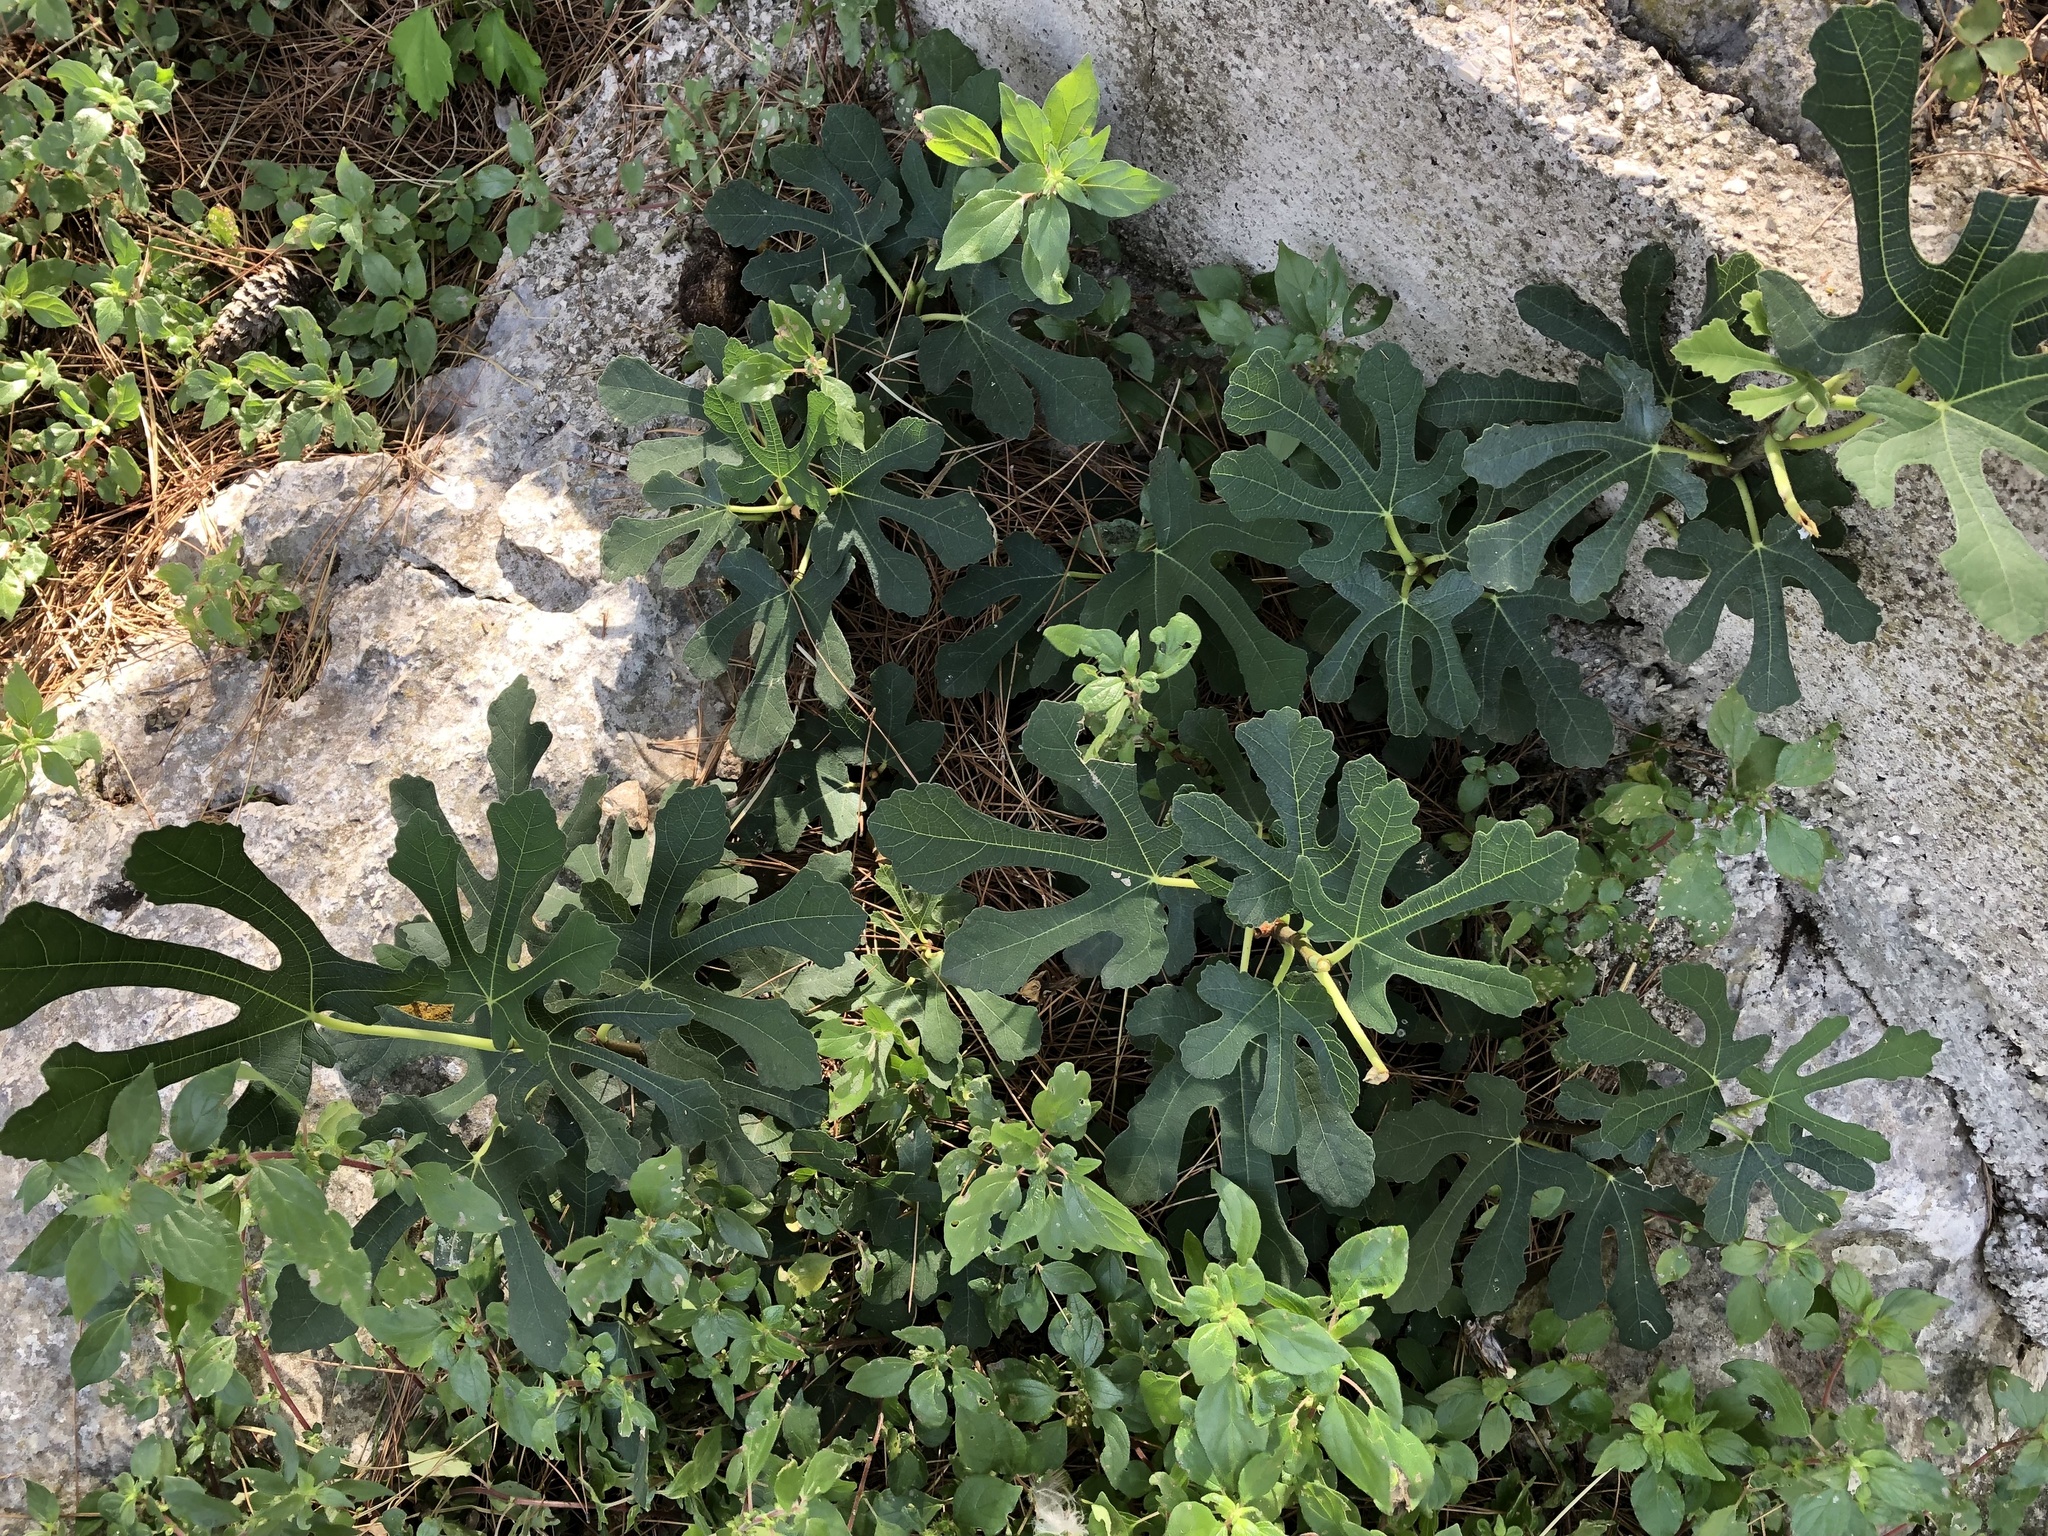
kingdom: Plantae
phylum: Tracheophyta
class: Magnoliopsida
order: Rosales
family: Moraceae
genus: Ficus
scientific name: Ficus carica
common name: Fig
